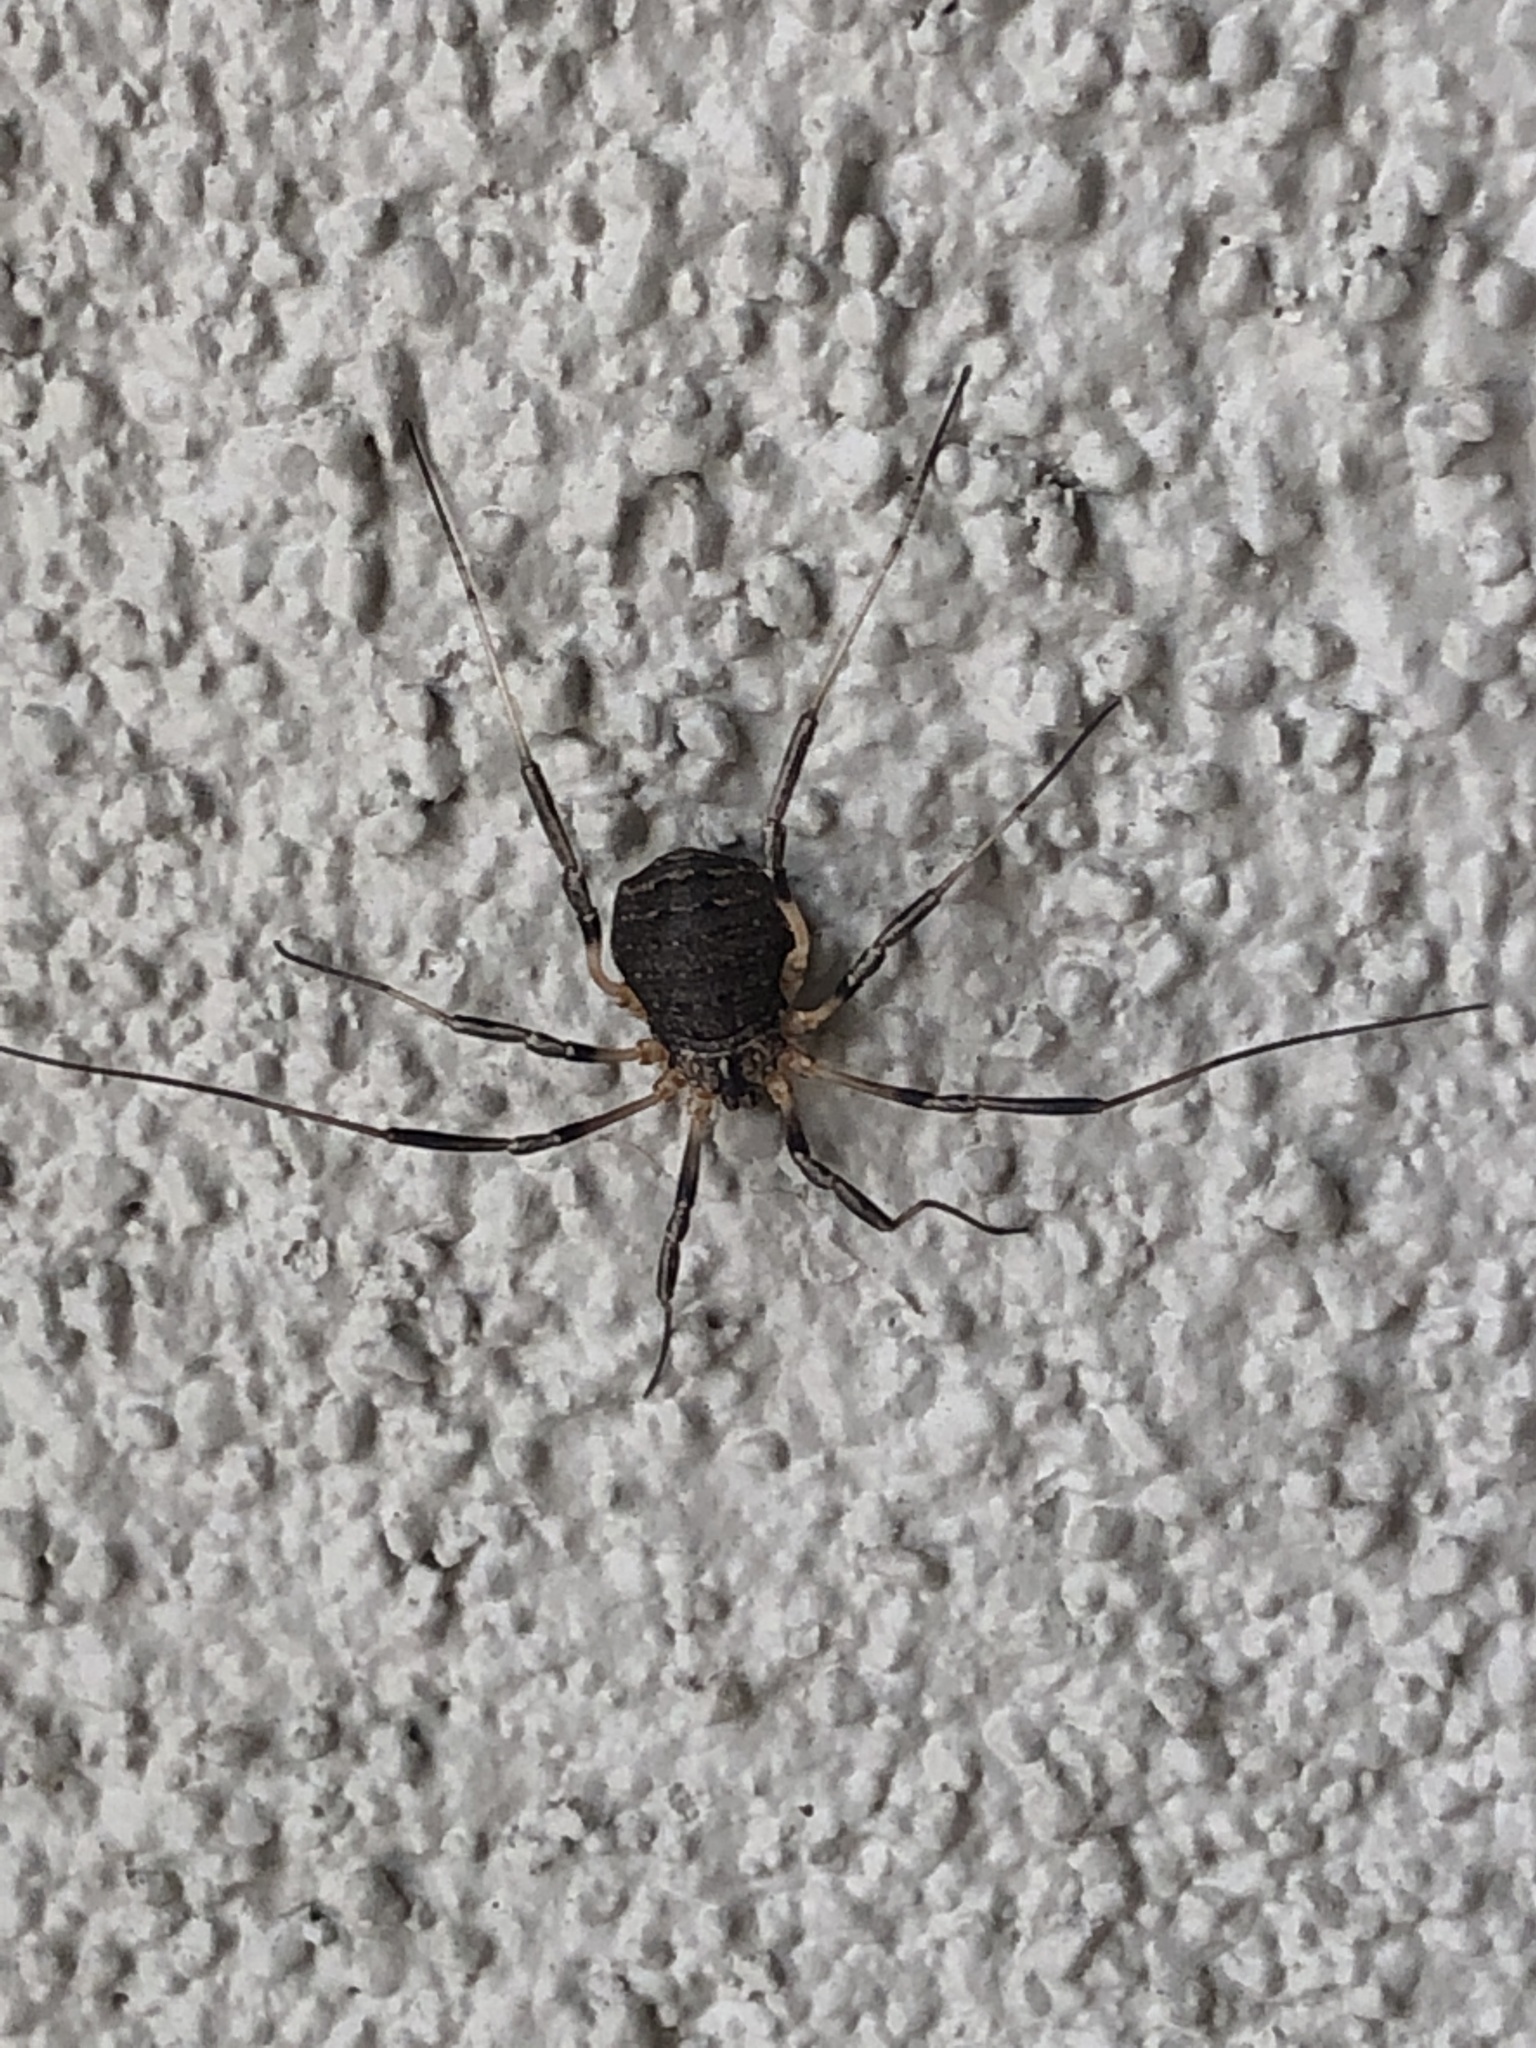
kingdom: Animalia
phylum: Arthropoda
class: Arachnida
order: Opiliones
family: Sclerosomatidae
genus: Eumesosoma
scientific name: Eumesosoma roeweri
